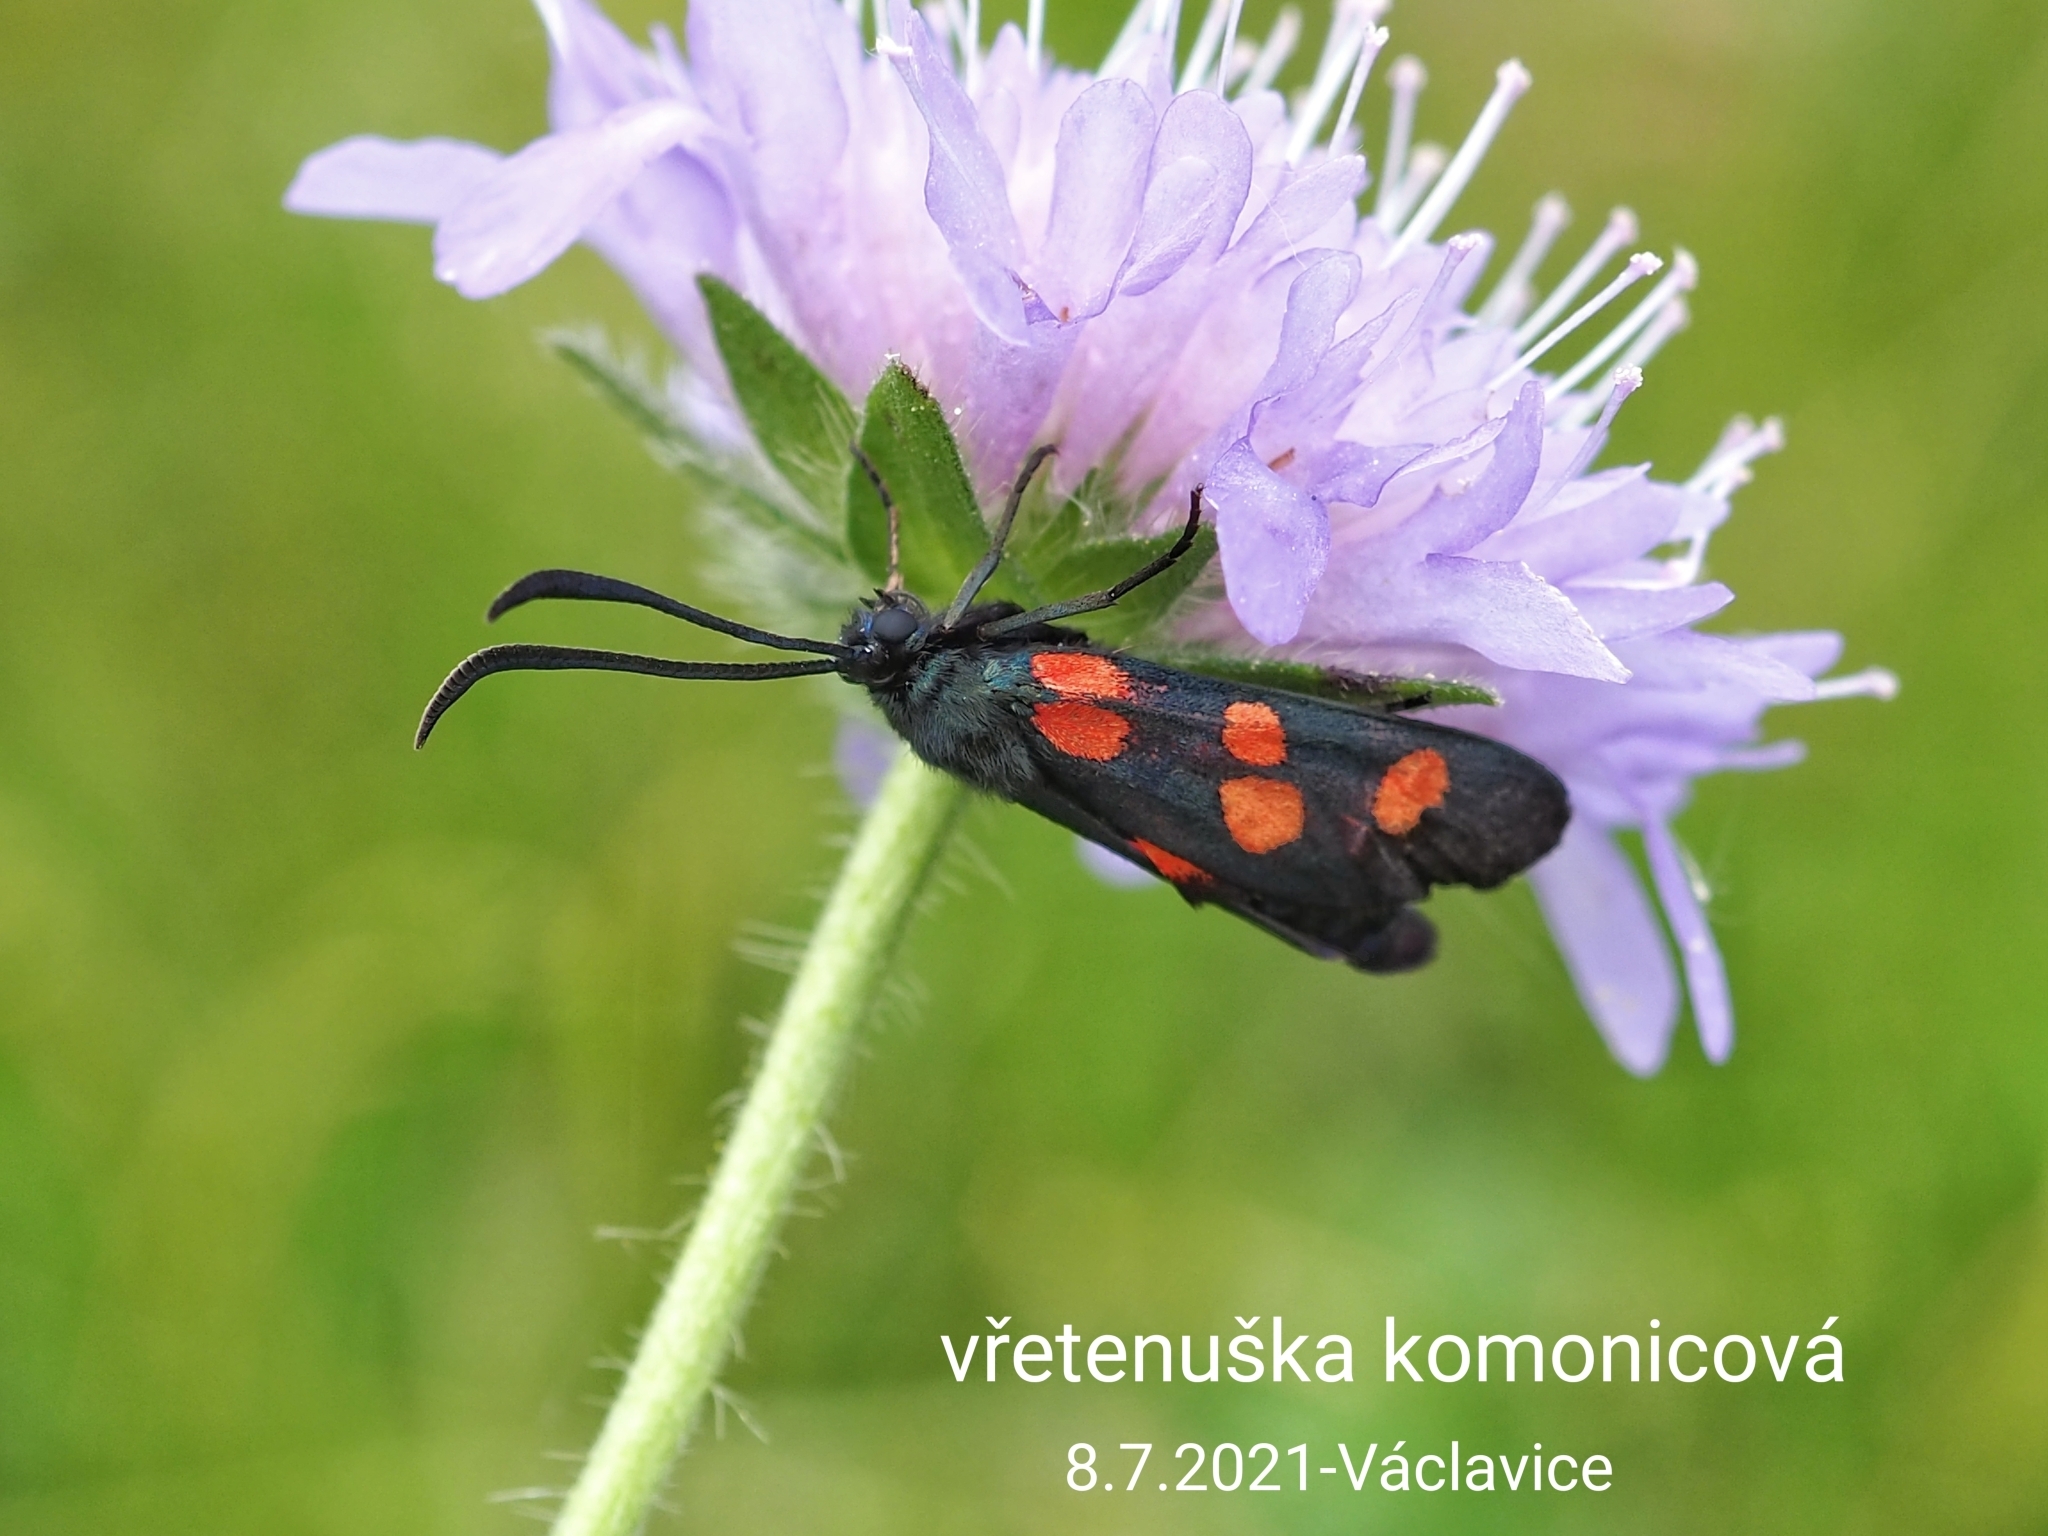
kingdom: Animalia
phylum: Arthropoda
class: Insecta
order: Lepidoptera
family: Zygaenidae
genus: Zygaena
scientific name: Zygaena
